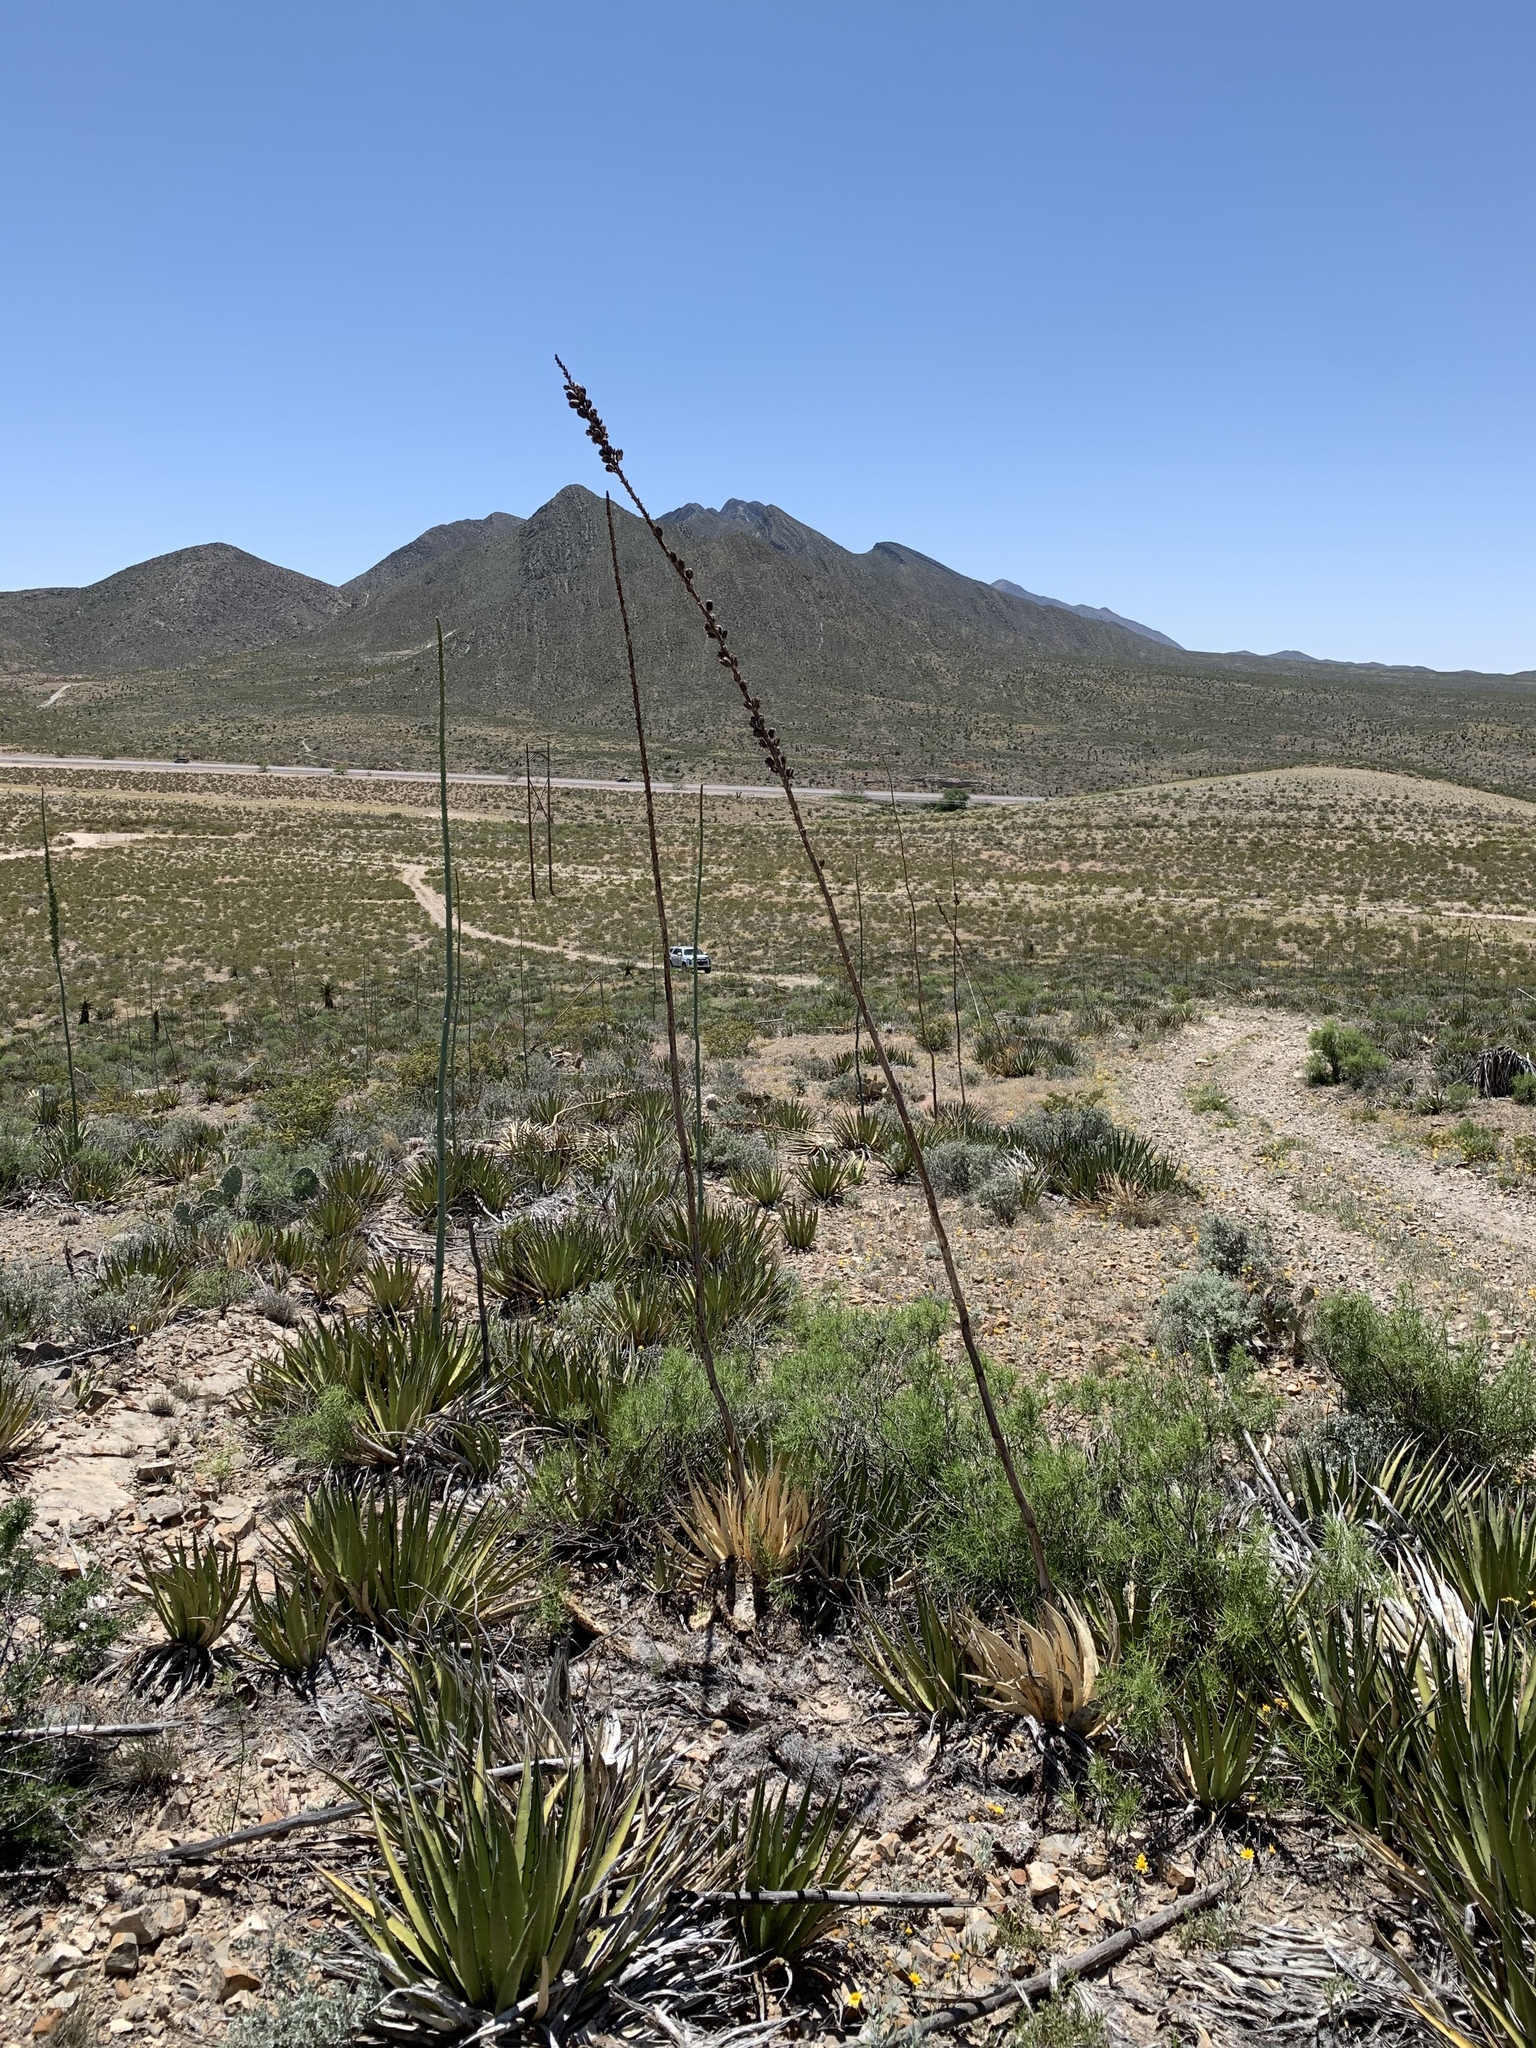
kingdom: Plantae
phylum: Tracheophyta
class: Liliopsida
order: Asparagales
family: Asparagaceae
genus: Agave
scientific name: Agave lechuguilla
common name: Lecheguilla agave
